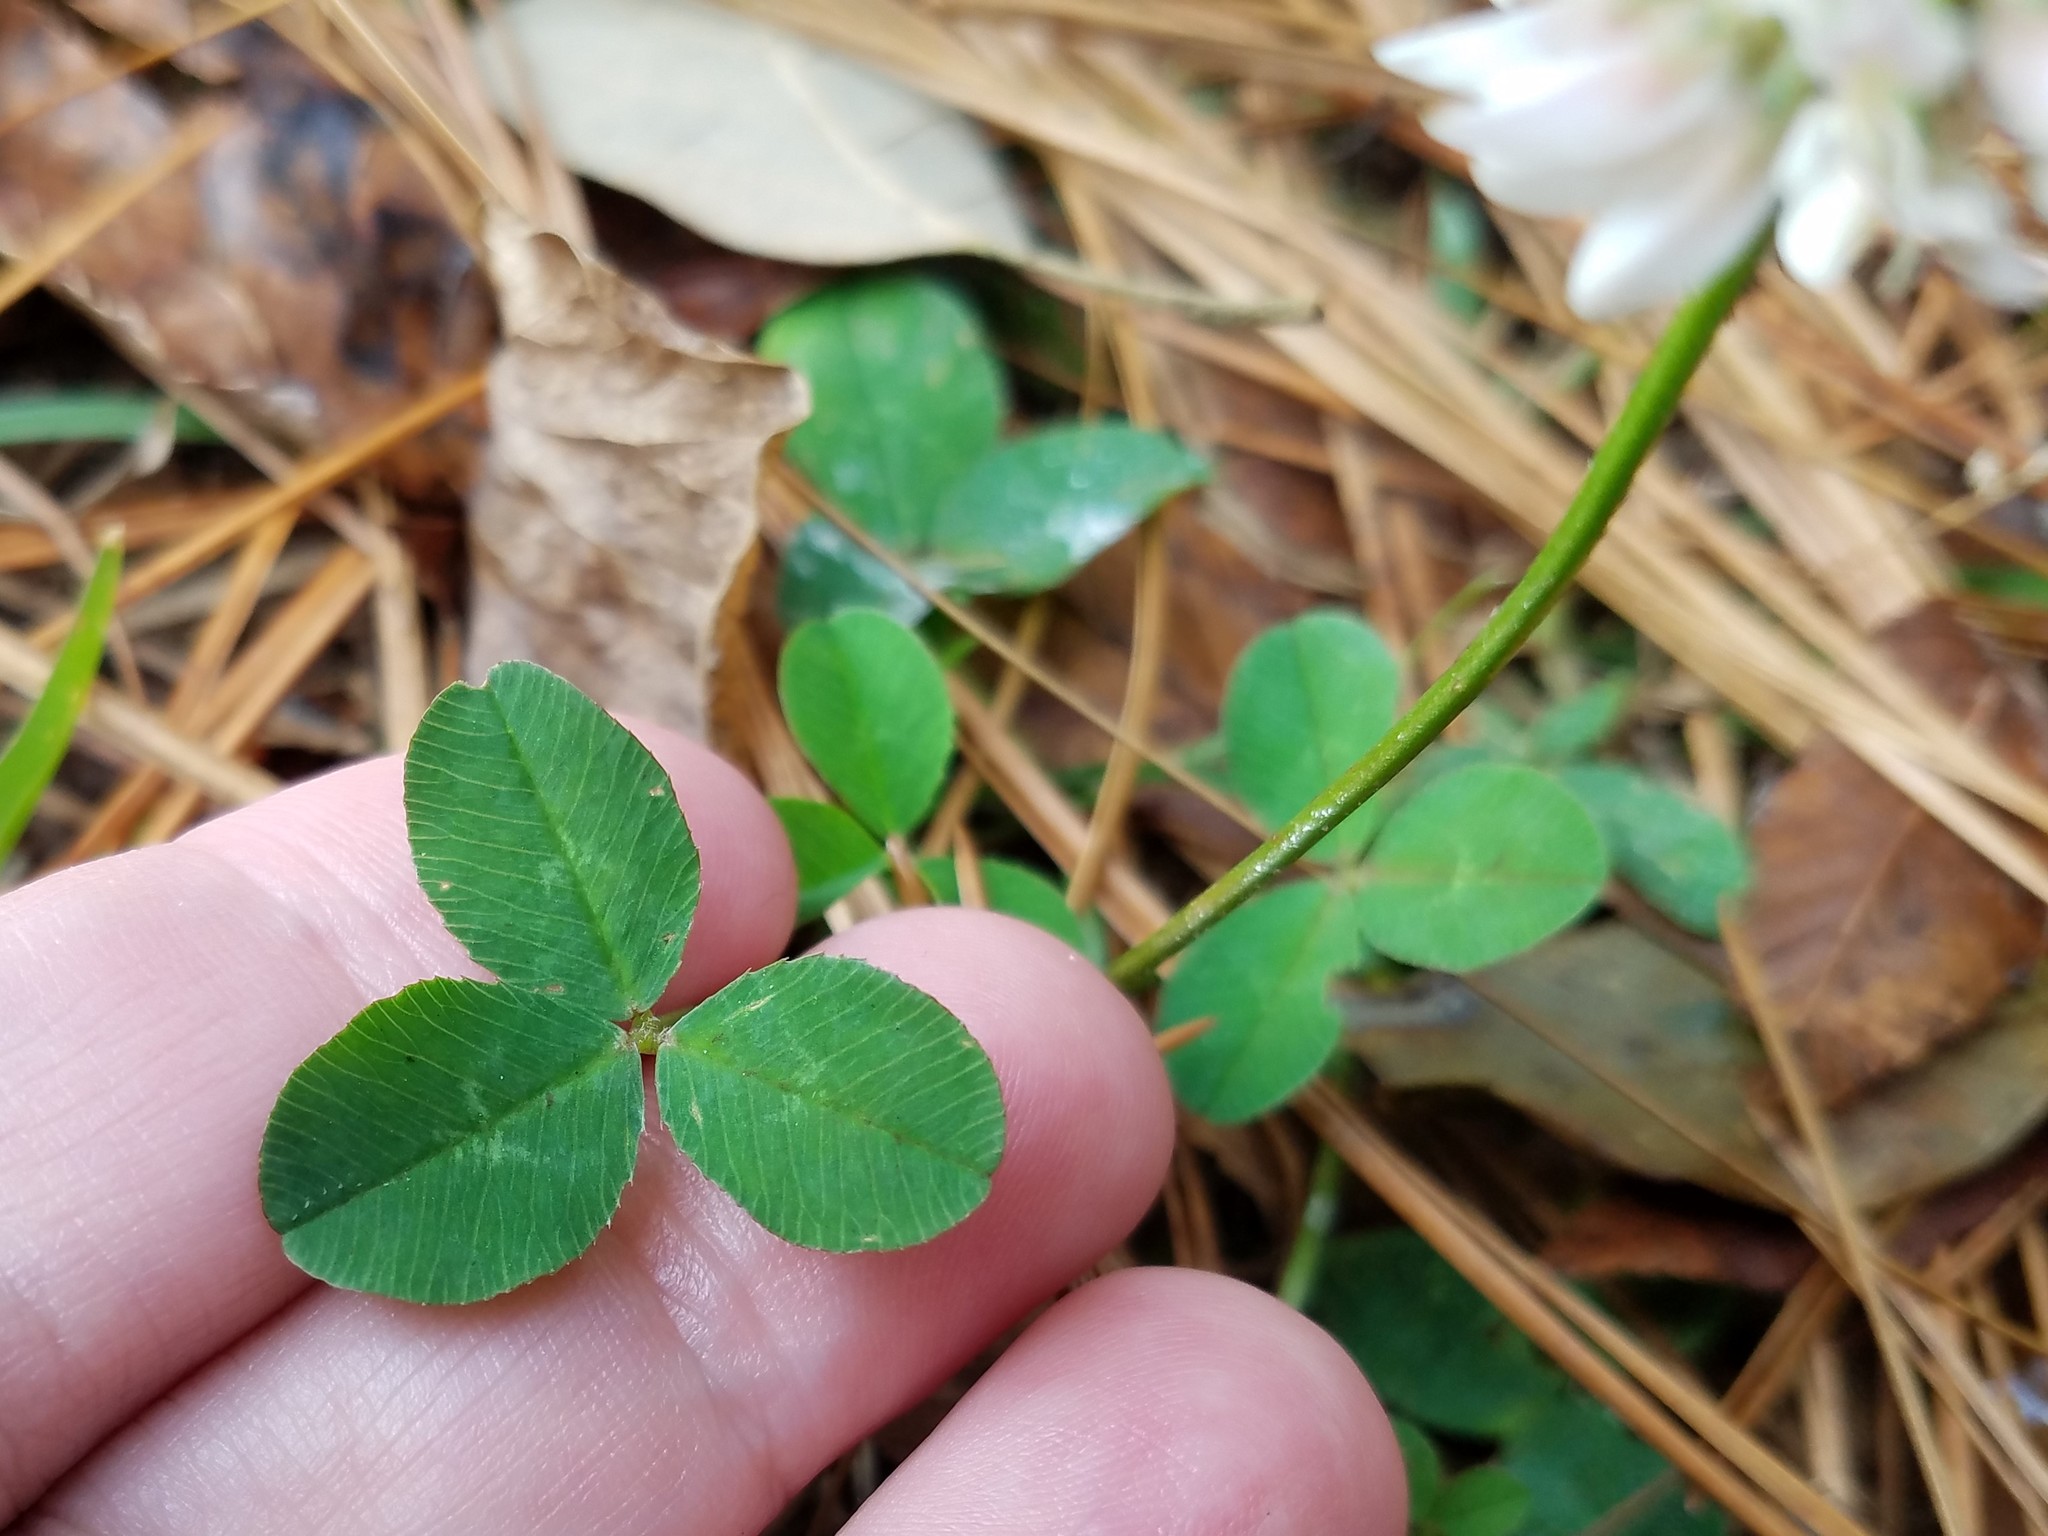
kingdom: Plantae
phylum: Tracheophyta
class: Magnoliopsida
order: Fabales
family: Fabaceae
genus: Trifolium
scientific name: Trifolium repens
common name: White clover
